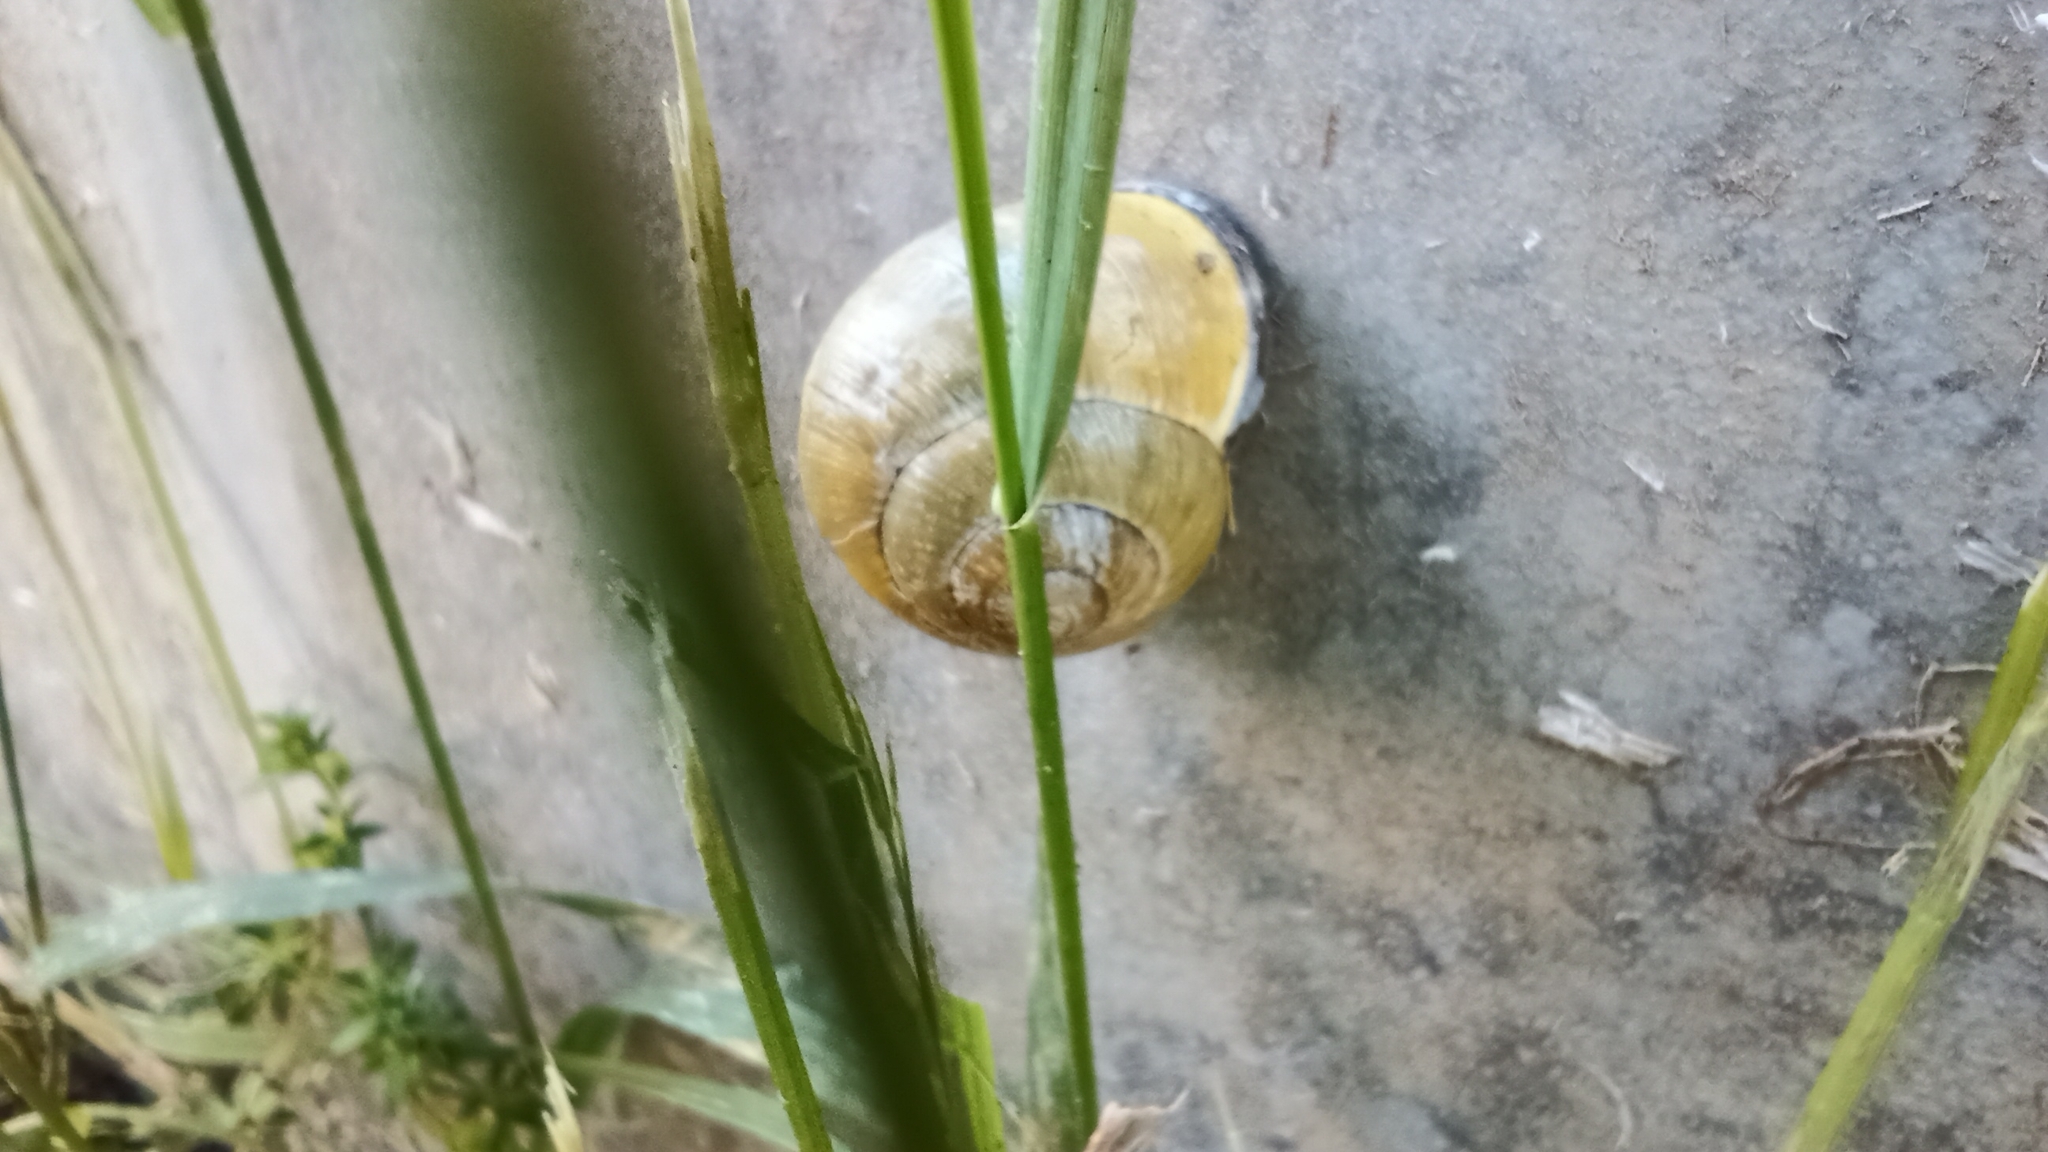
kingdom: Animalia
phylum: Mollusca
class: Gastropoda
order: Stylommatophora
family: Helicidae
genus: Cepaea
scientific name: Cepaea nemoralis
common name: Grovesnail
